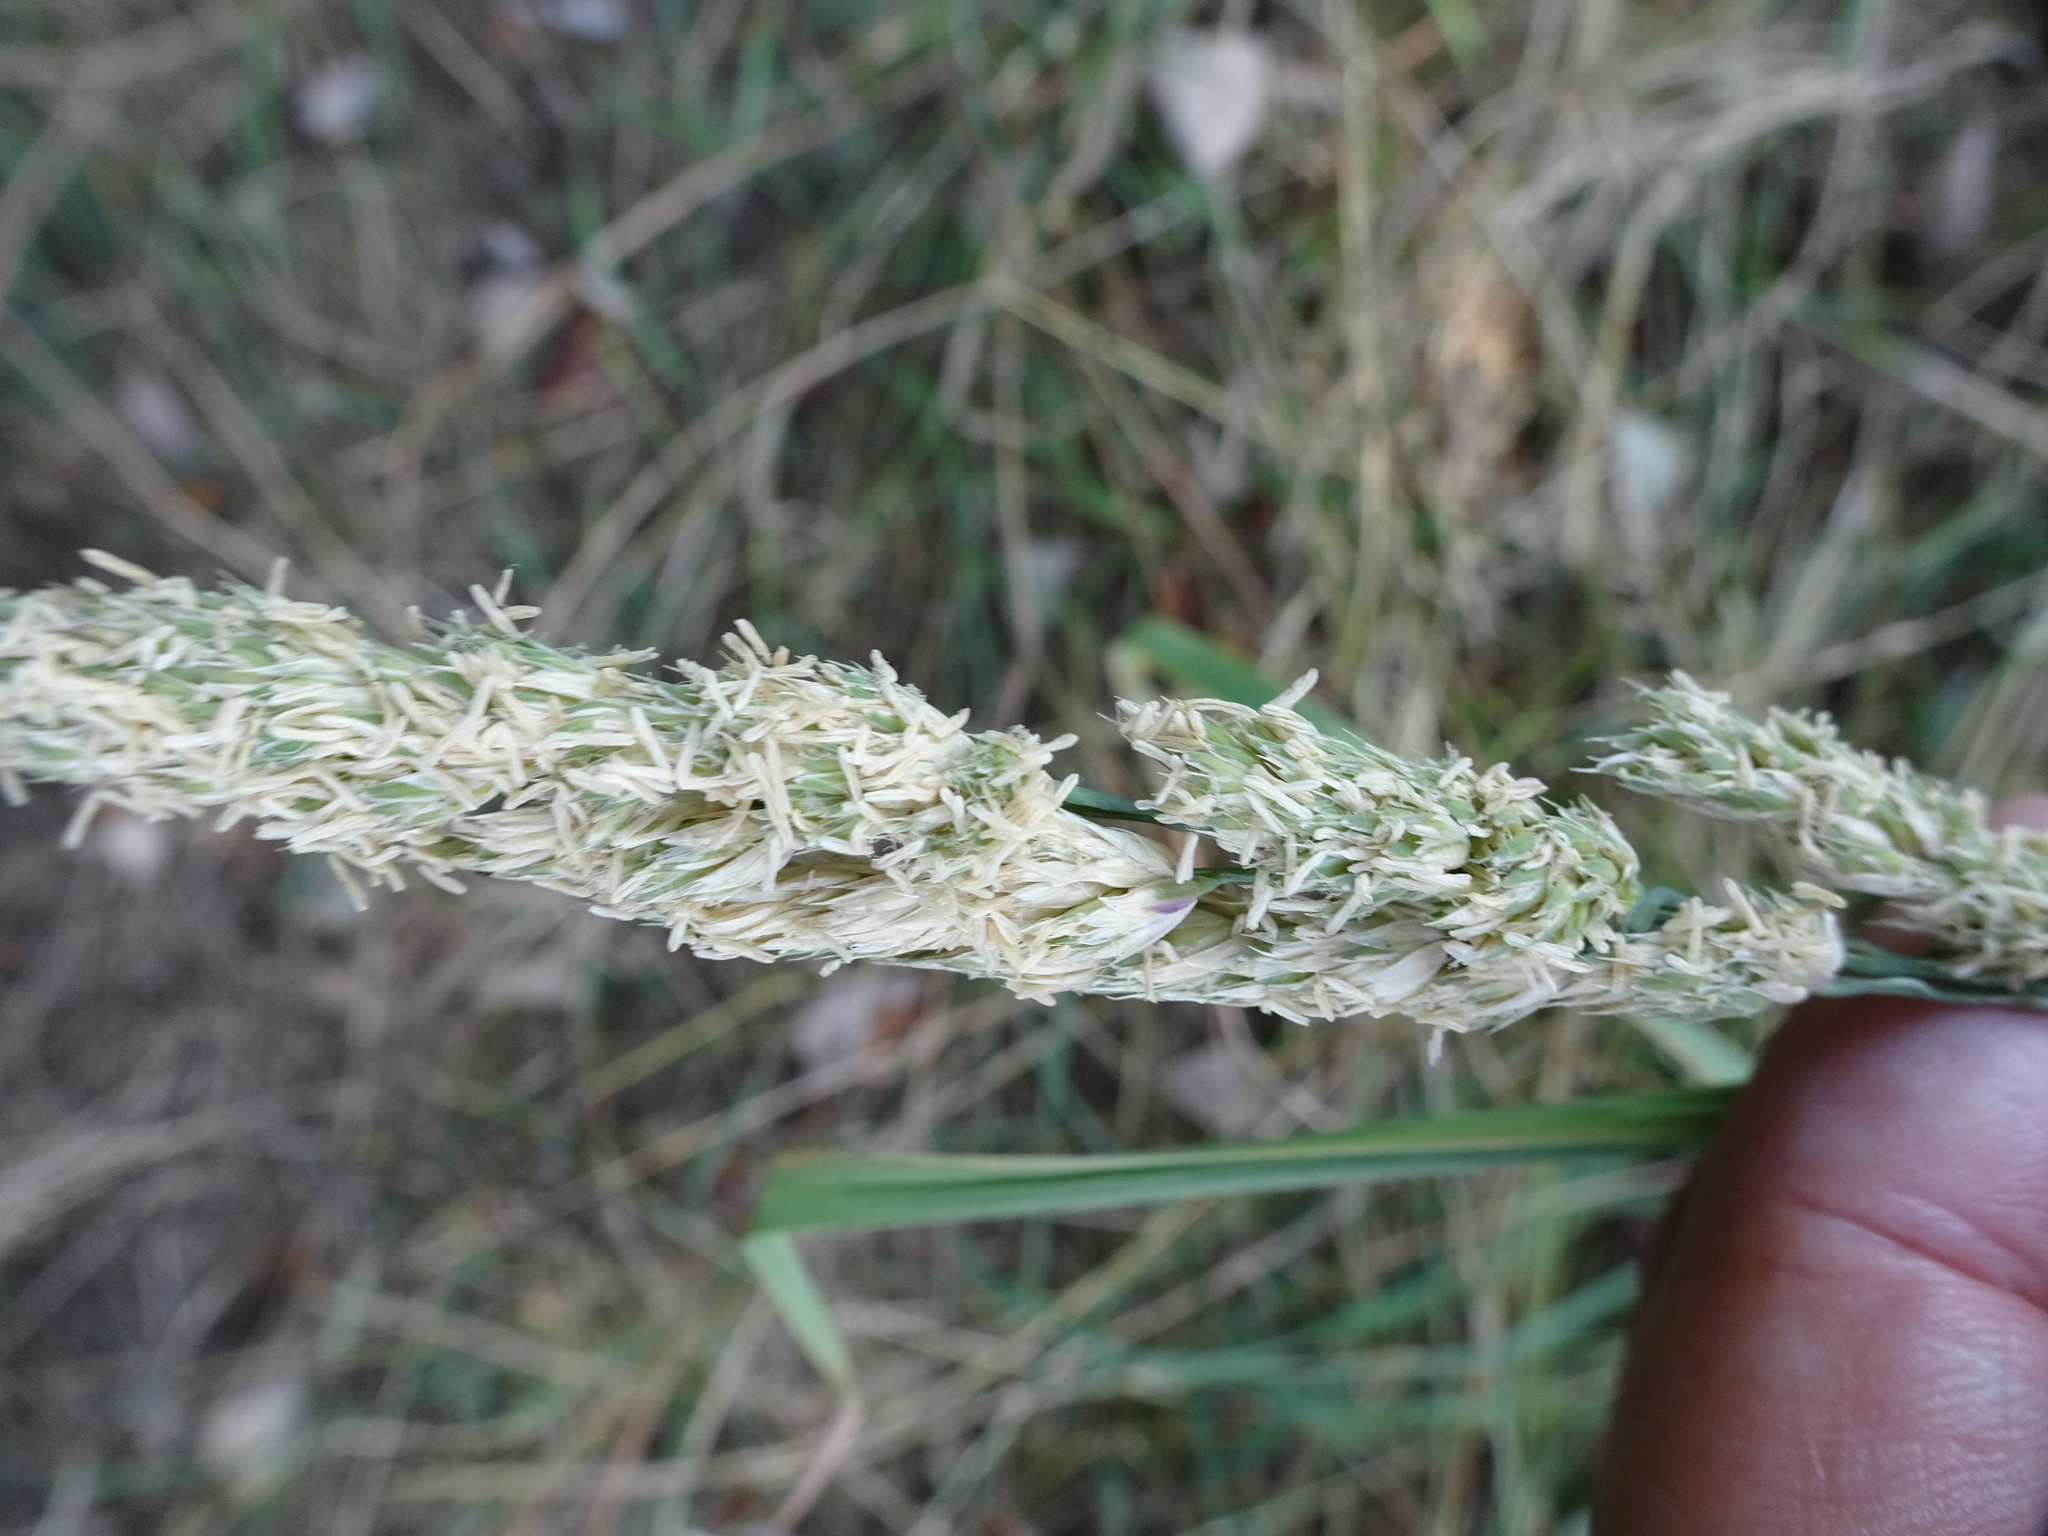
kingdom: Plantae
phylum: Tracheophyta
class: Liliopsida
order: Poales
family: Poaceae
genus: Dactylis
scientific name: Dactylis glomerata
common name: Orchardgrass
